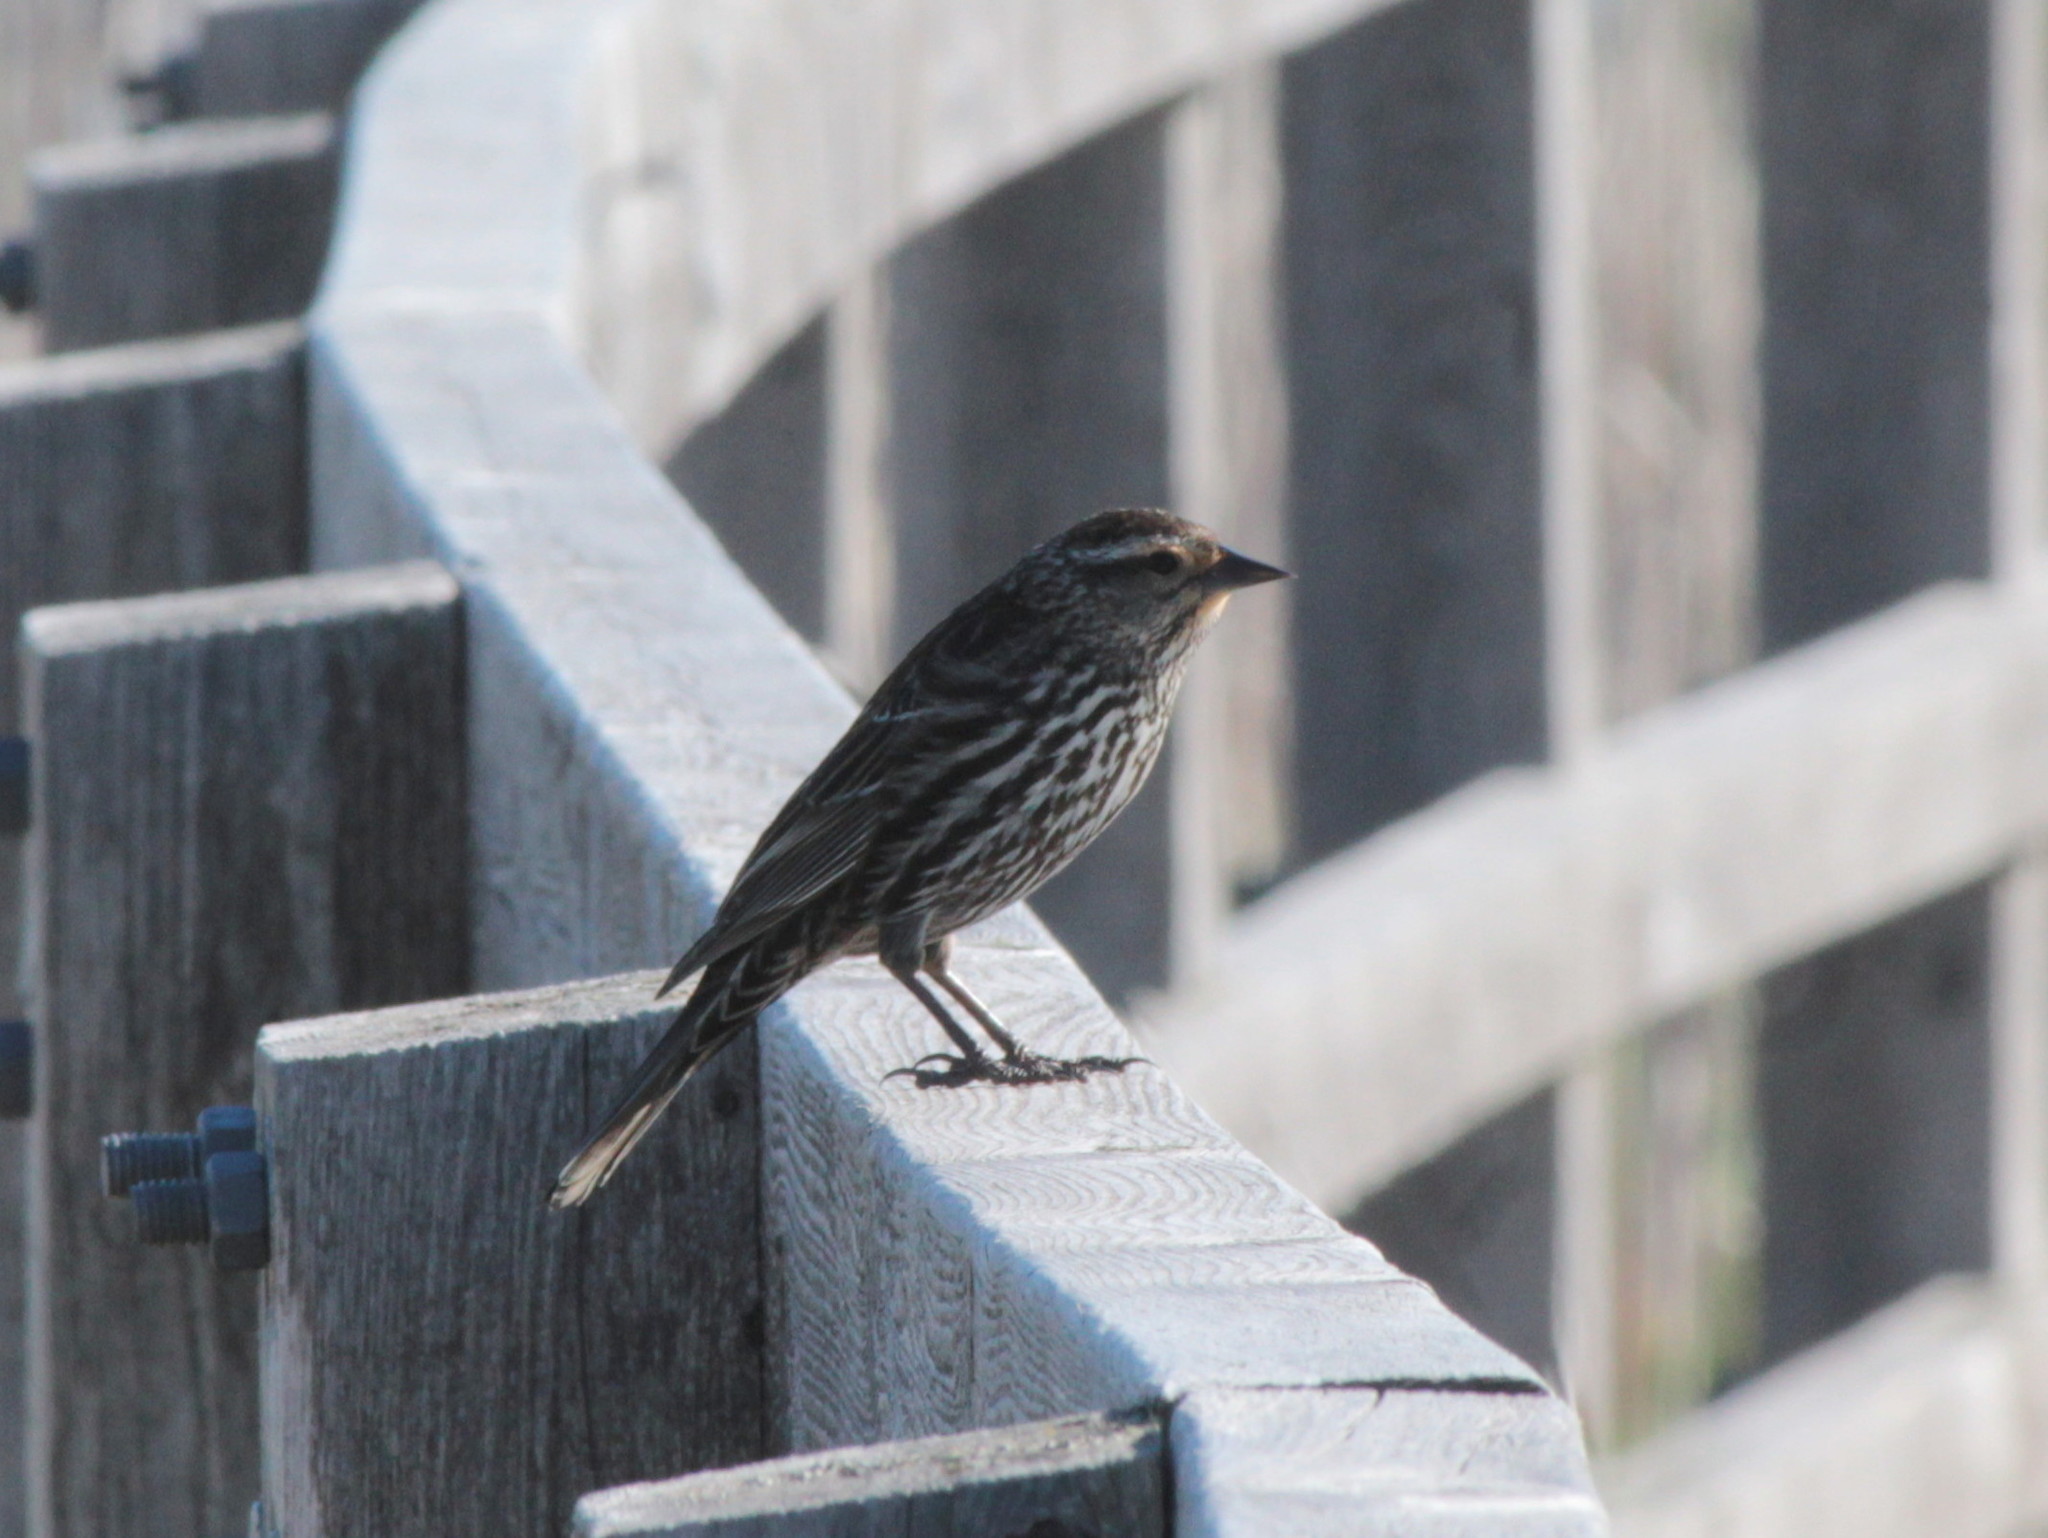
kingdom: Animalia
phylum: Chordata
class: Aves
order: Passeriformes
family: Icteridae
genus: Agelaius
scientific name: Agelaius phoeniceus
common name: Red-winged blackbird
